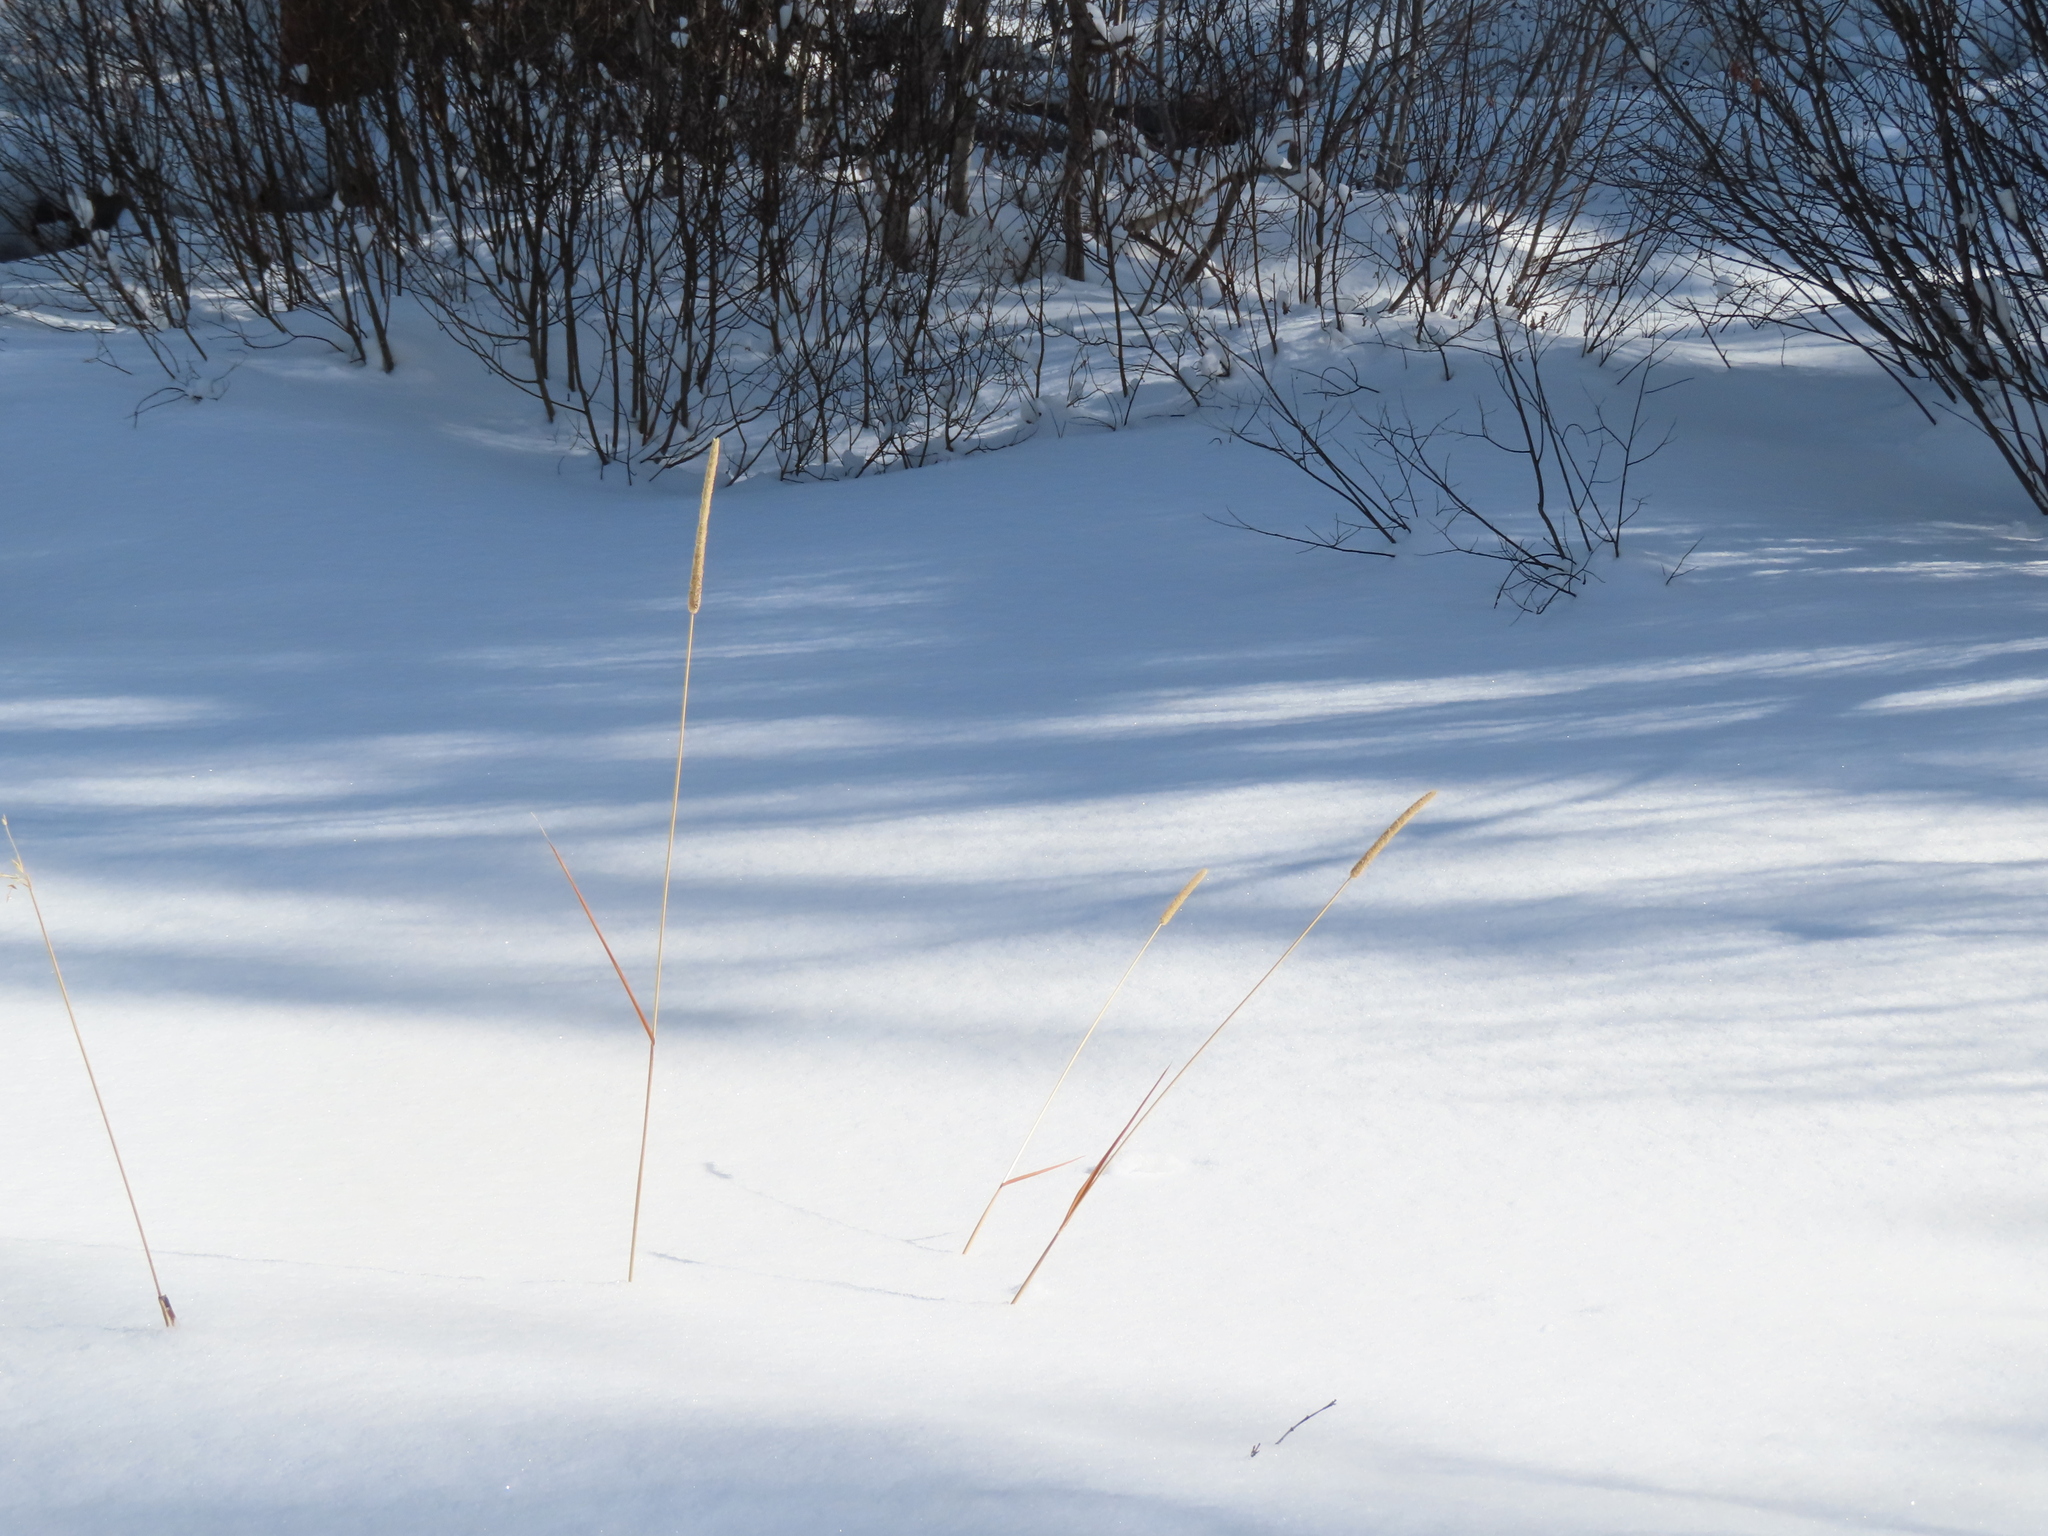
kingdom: Plantae
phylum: Tracheophyta
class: Liliopsida
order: Poales
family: Poaceae
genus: Phleum
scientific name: Phleum pratense
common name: Timothy grass
